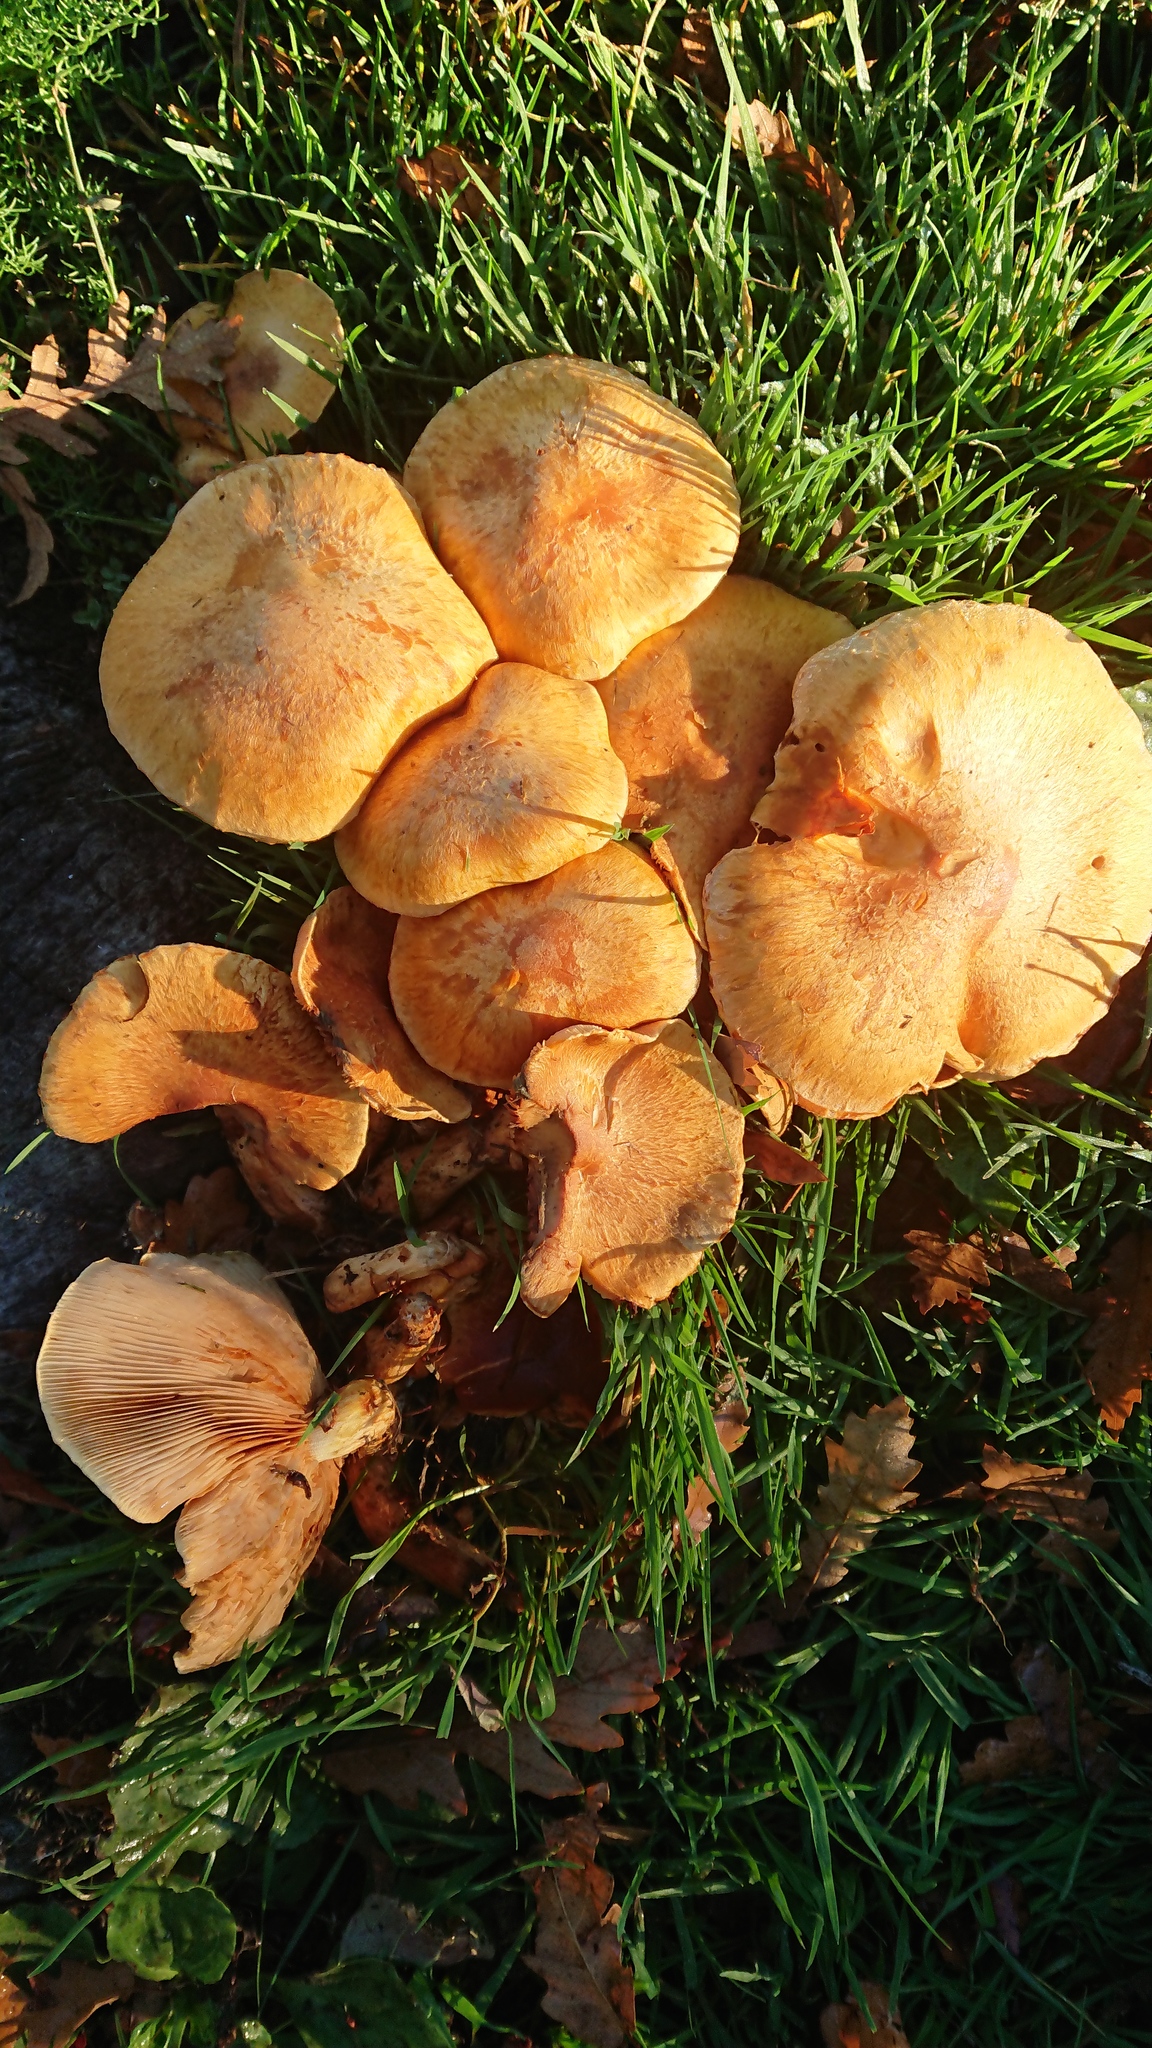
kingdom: Fungi
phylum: Basidiomycota
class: Agaricomycetes
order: Agaricales
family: Hymenogastraceae
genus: Gymnopilus
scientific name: Gymnopilus junonius
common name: Spectacular rustgill
